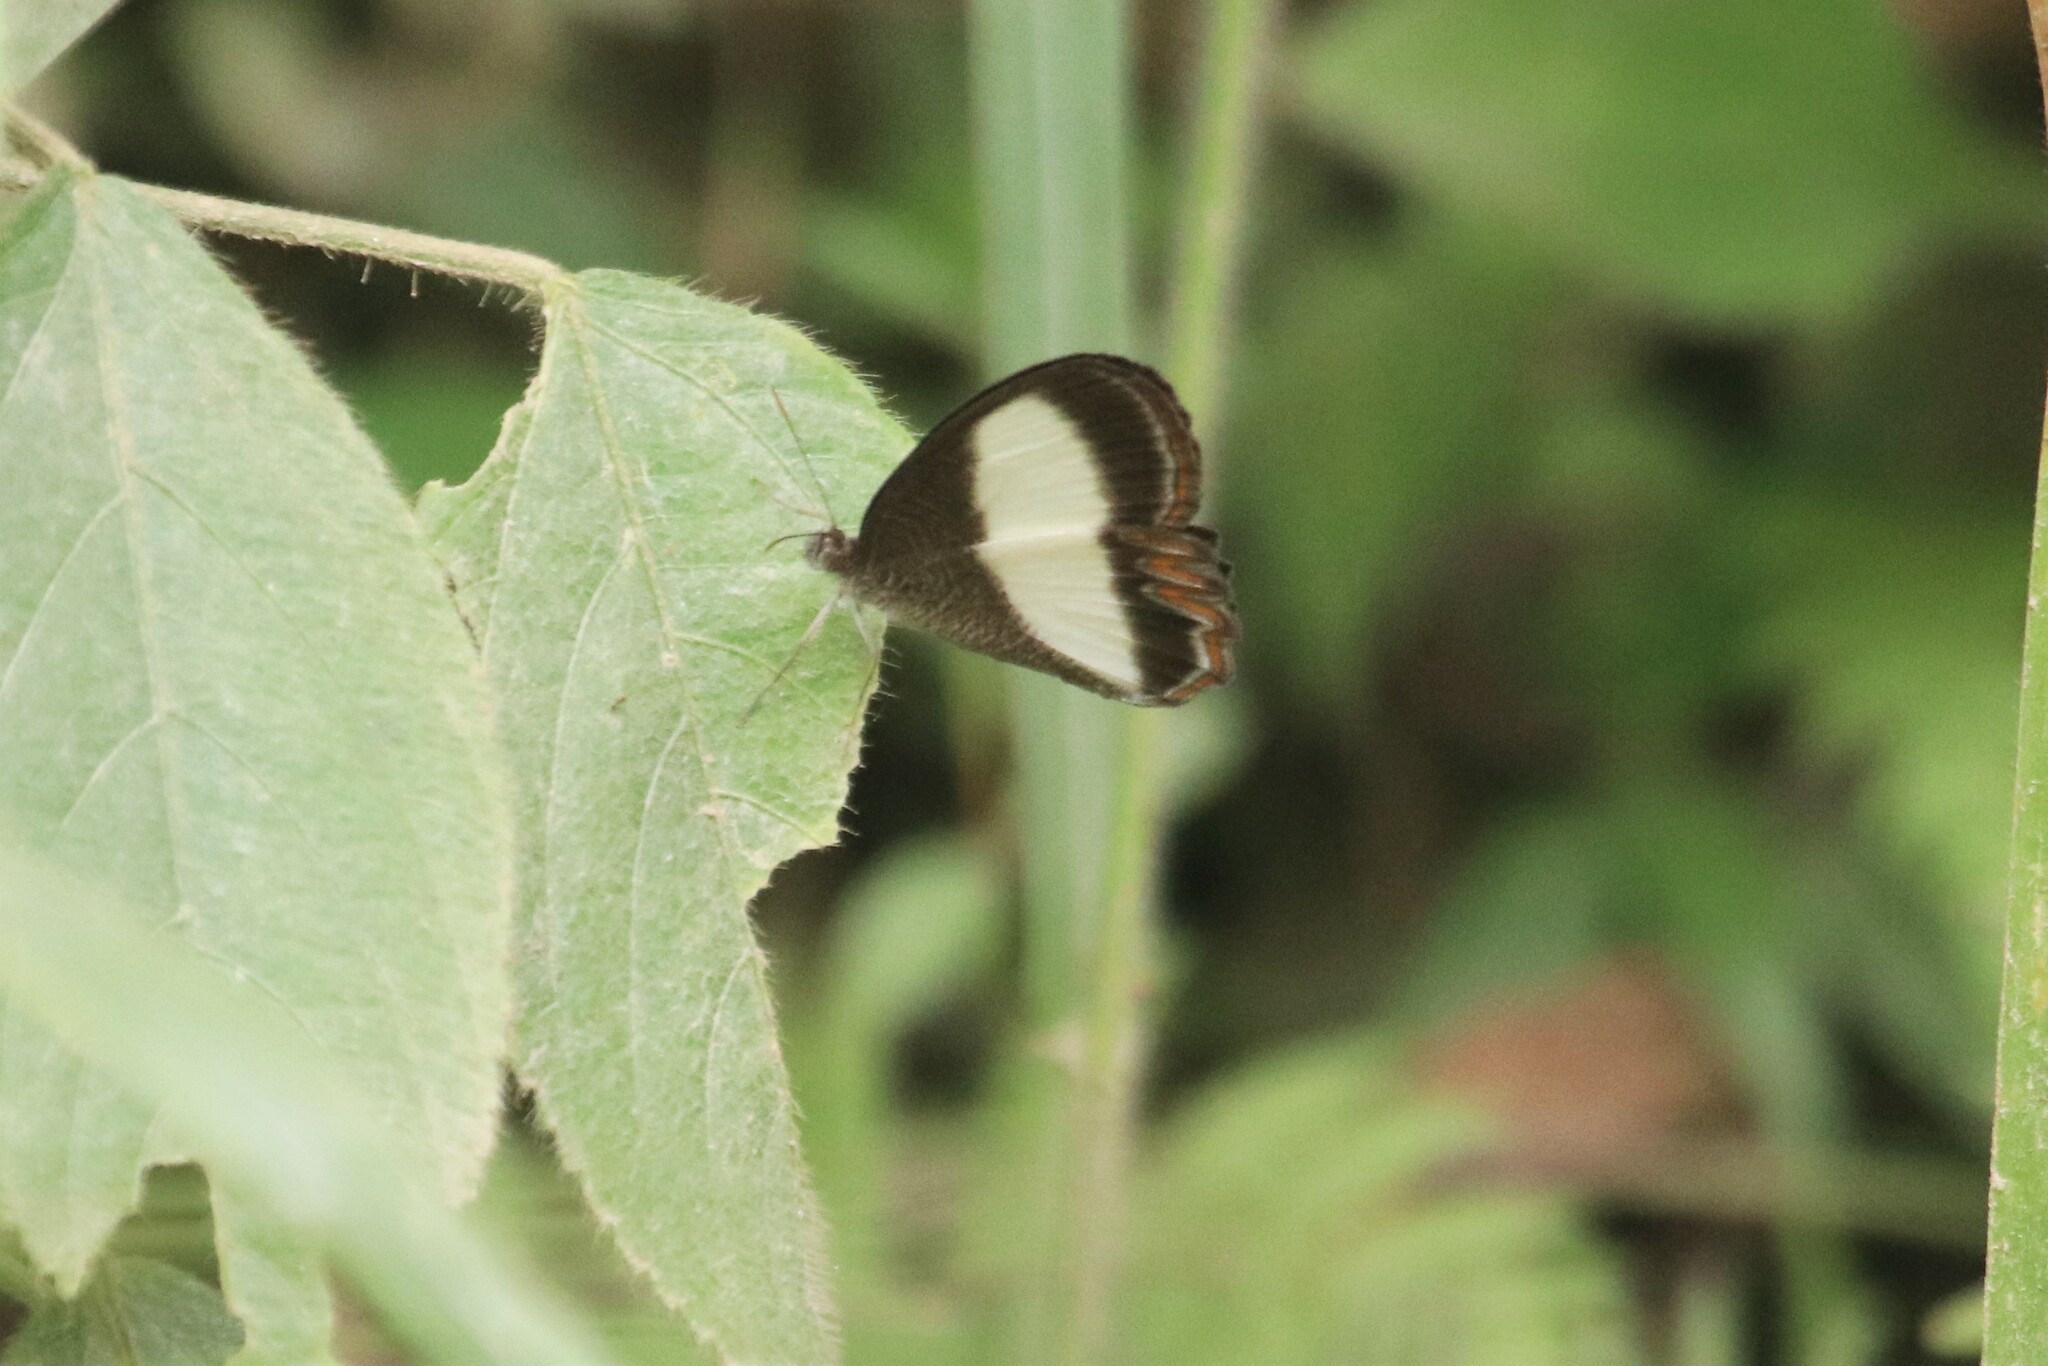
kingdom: Animalia
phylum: Arthropoda
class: Insecta
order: Lepidoptera
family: Nymphalidae
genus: Oressinoma
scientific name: Oressinoma typhla
